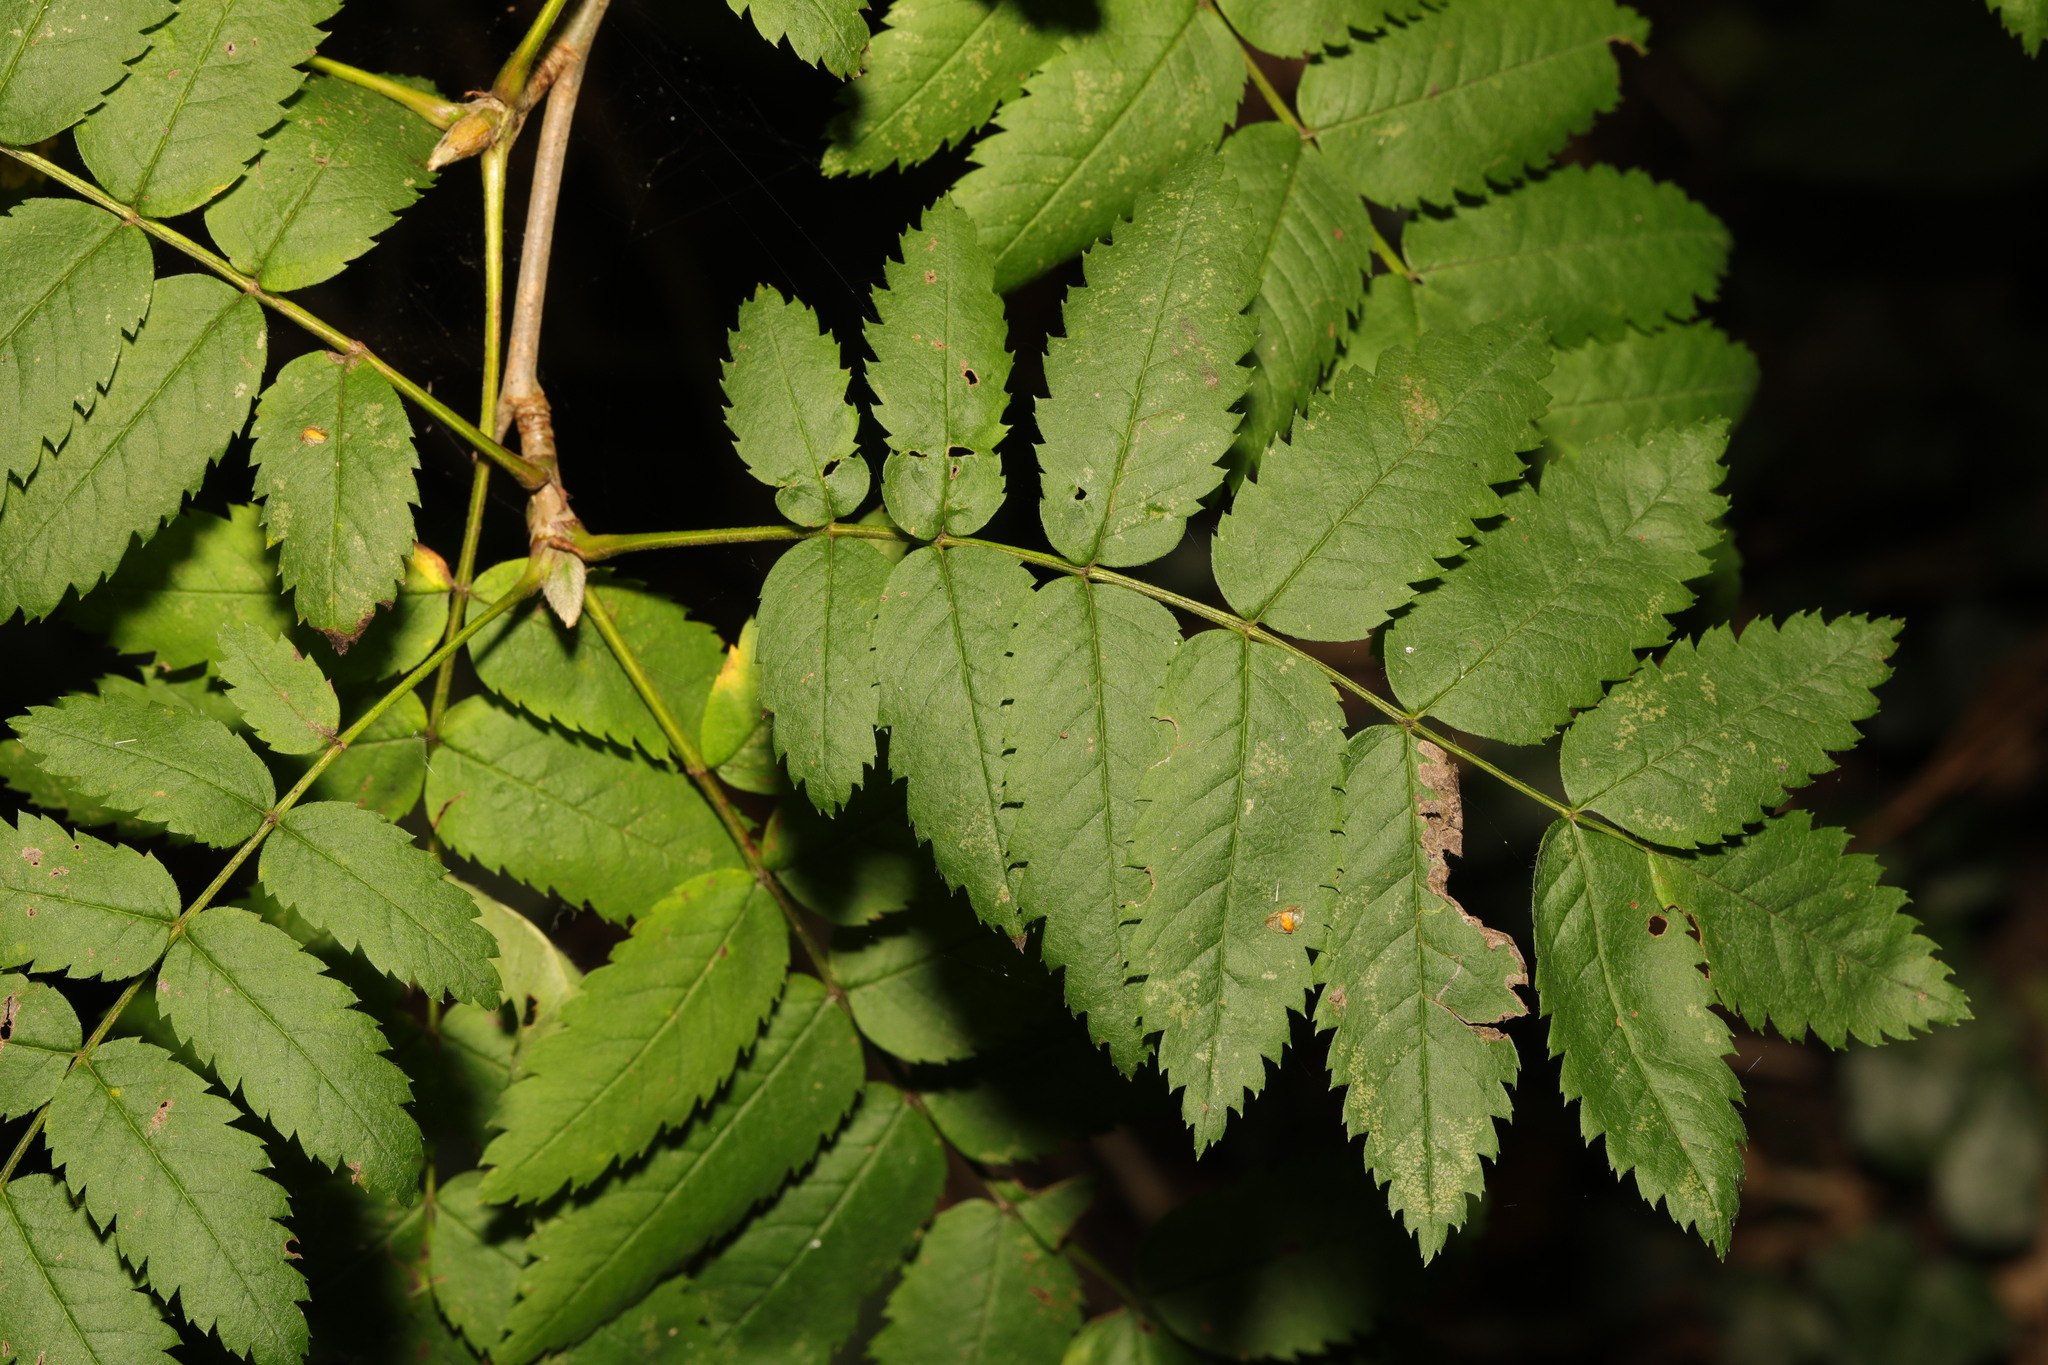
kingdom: Plantae
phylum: Tracheophyta
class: Magnoliopsida
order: Rosales
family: Rosaceae
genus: Sorbus
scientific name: Sorbus aucuparia
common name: Rowan
